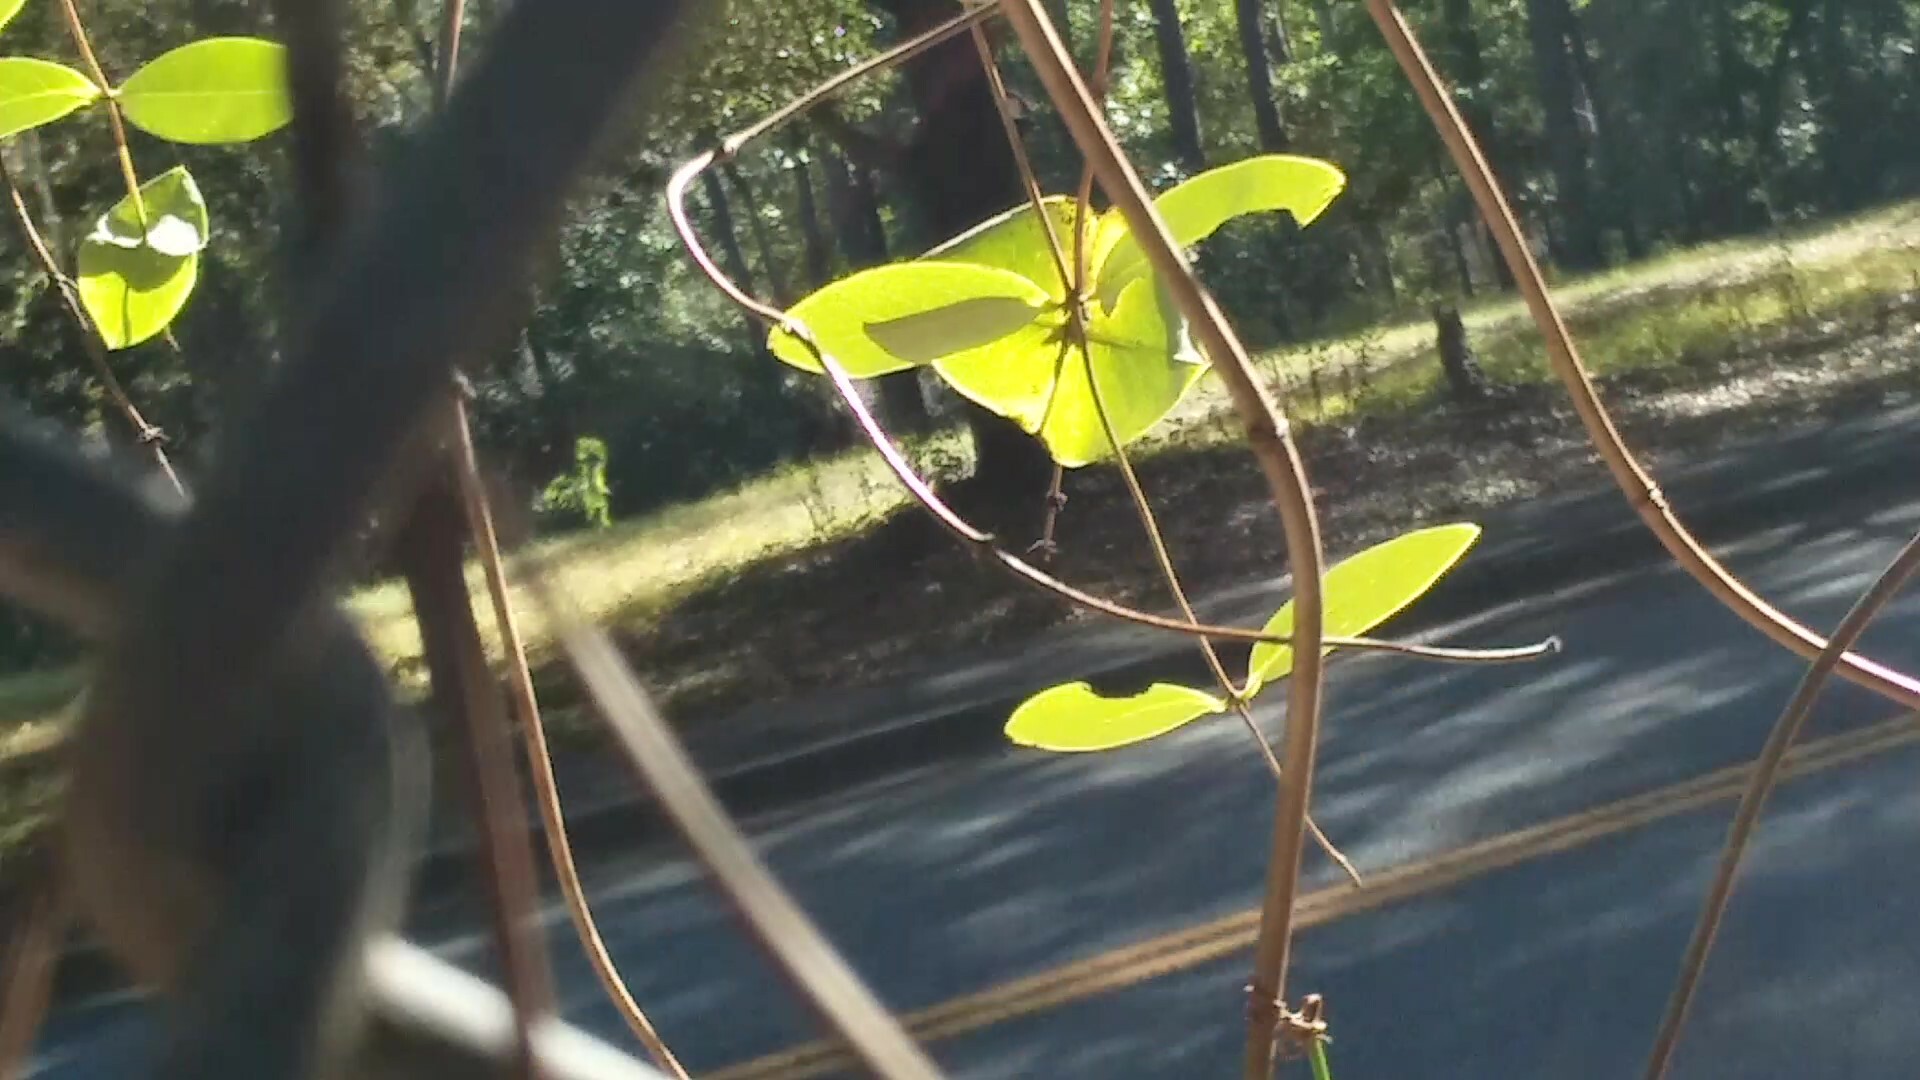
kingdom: Plantae
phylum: Tracheophyta
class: Magnoliopsida
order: Dipsacales
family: Caprifoliaceae
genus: Lonicera
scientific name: Lonicera sempervirens
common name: Coral honeysuckle
